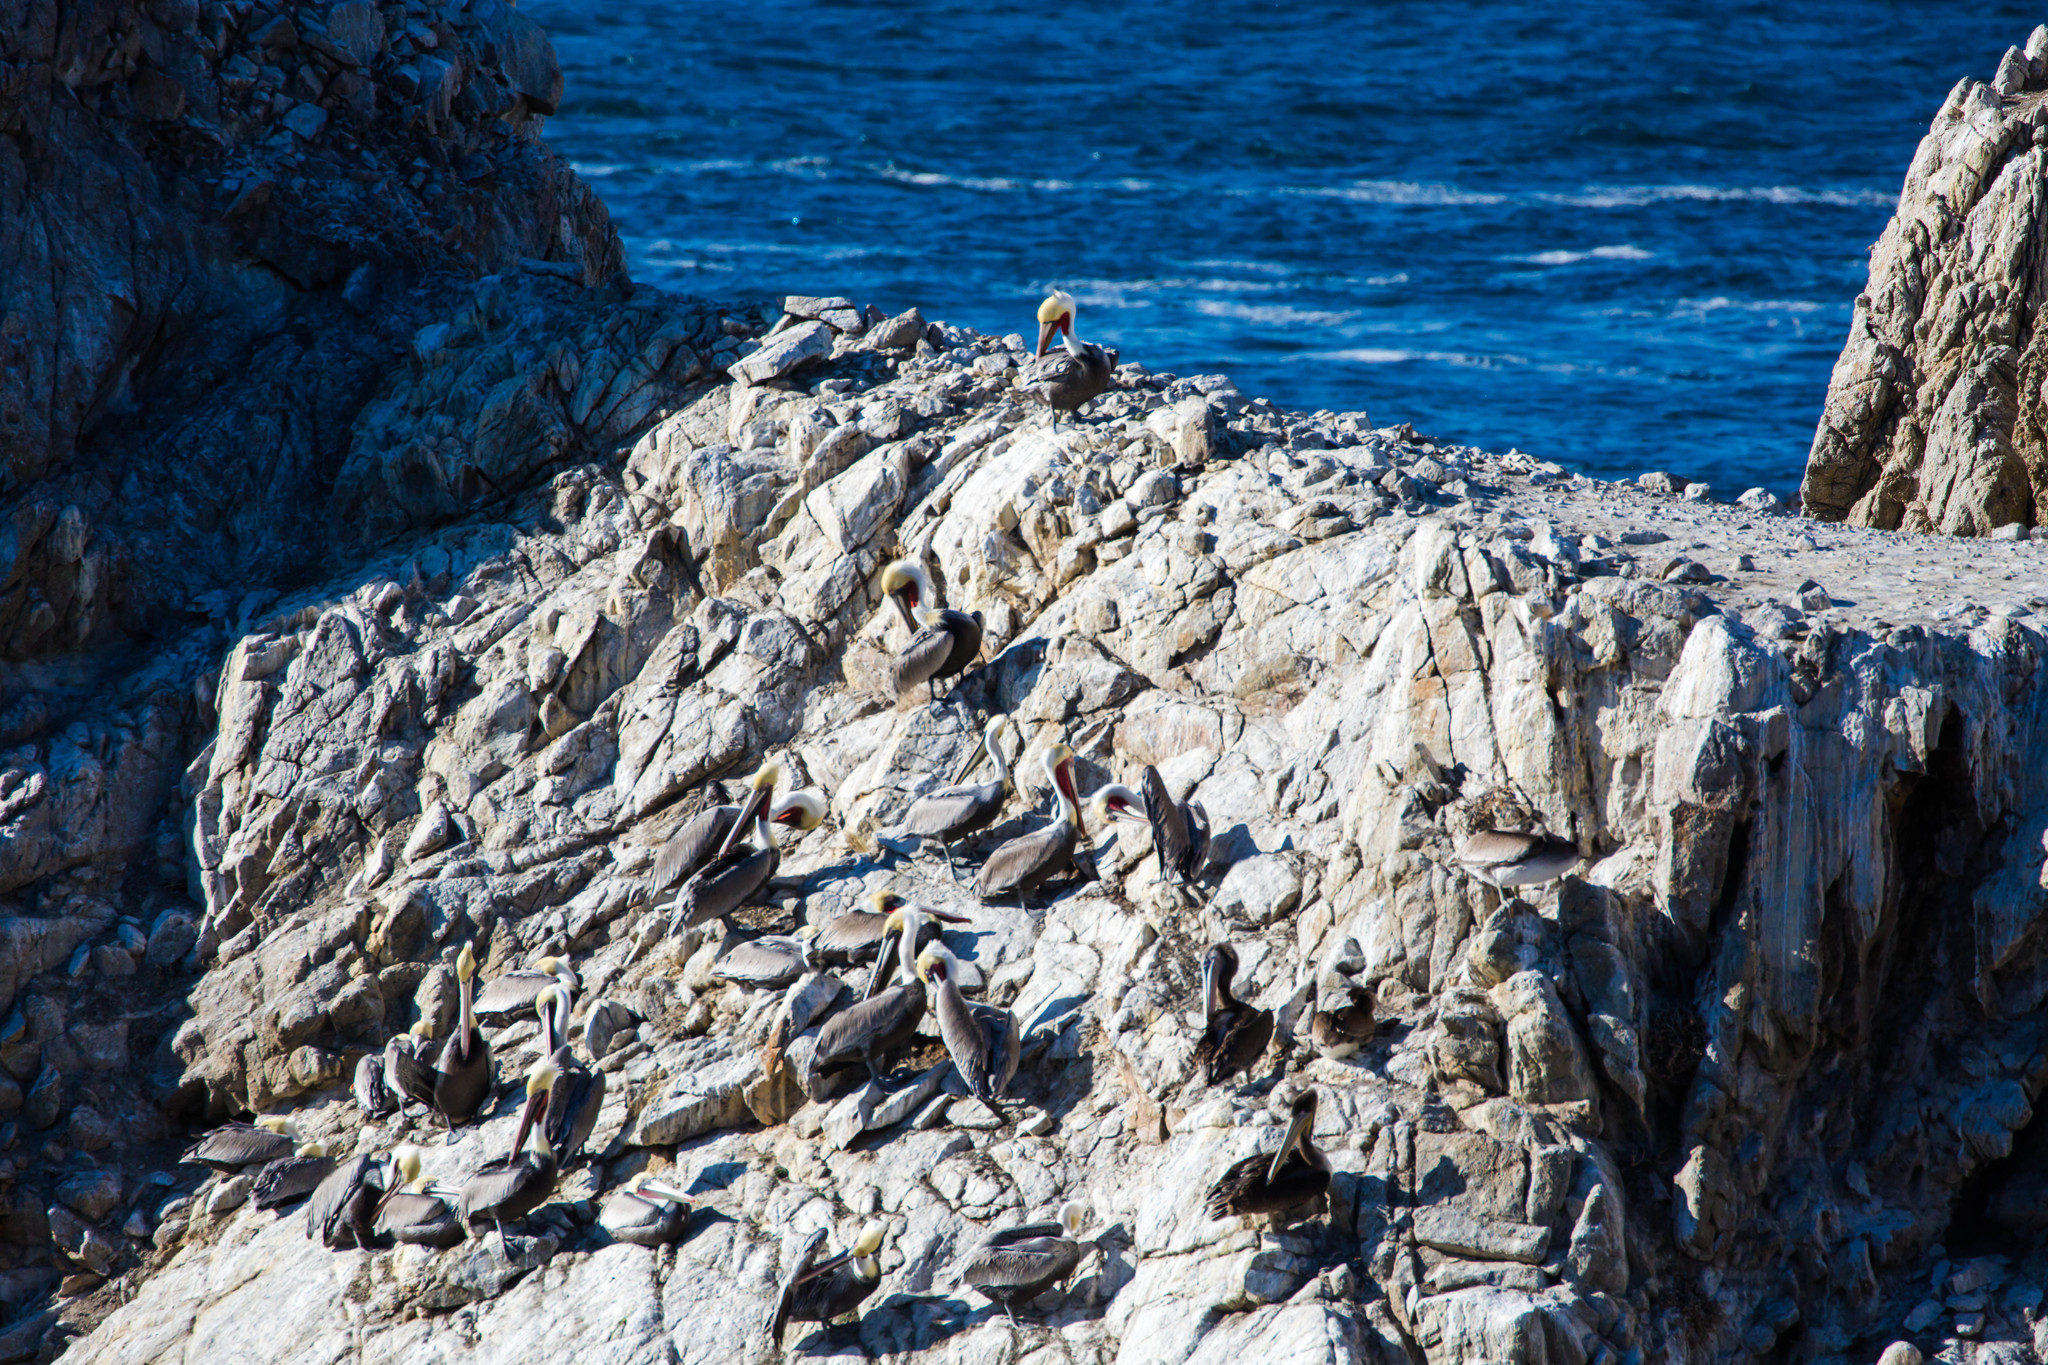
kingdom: Animalia
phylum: Chordata
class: Aves
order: Pelecaniformes
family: Pelecanidae
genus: Pelecanus
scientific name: Pelecanus occidentalis
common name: Brown pelican
